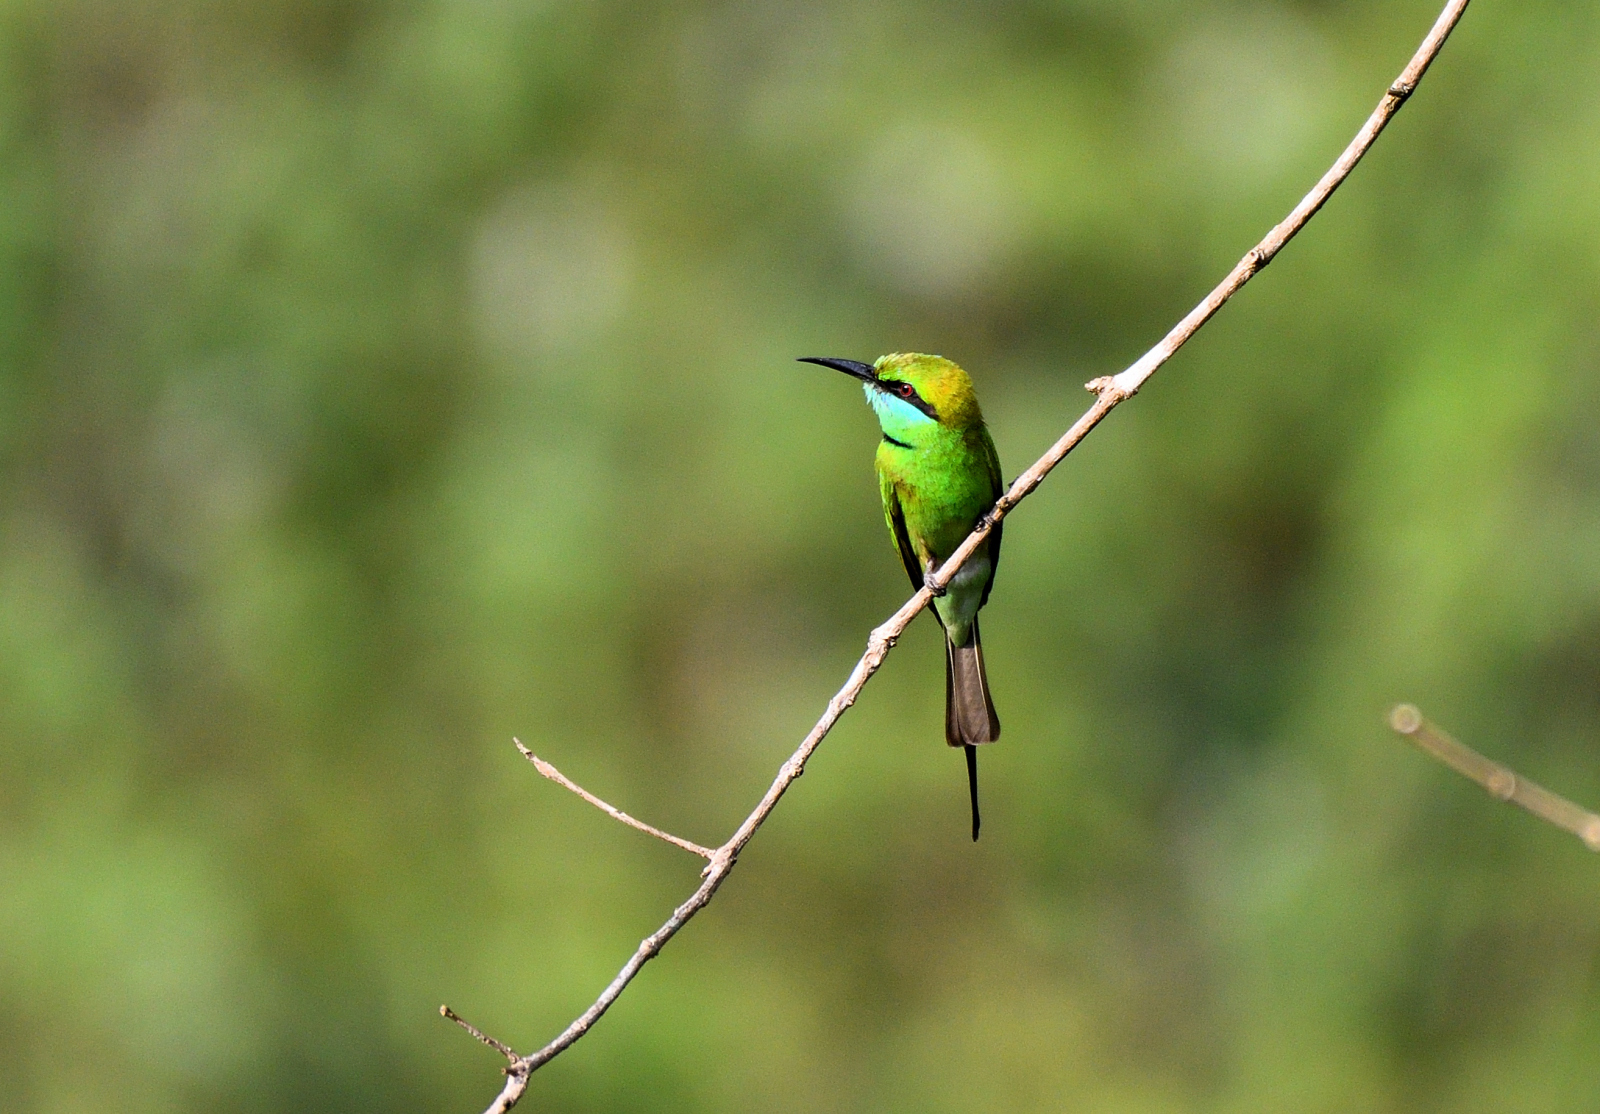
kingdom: Animalia
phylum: Chordata
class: Aves
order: Coraciiformes
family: Meropidae
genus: Merops
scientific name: Merops orientalis
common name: Green bee-eater
